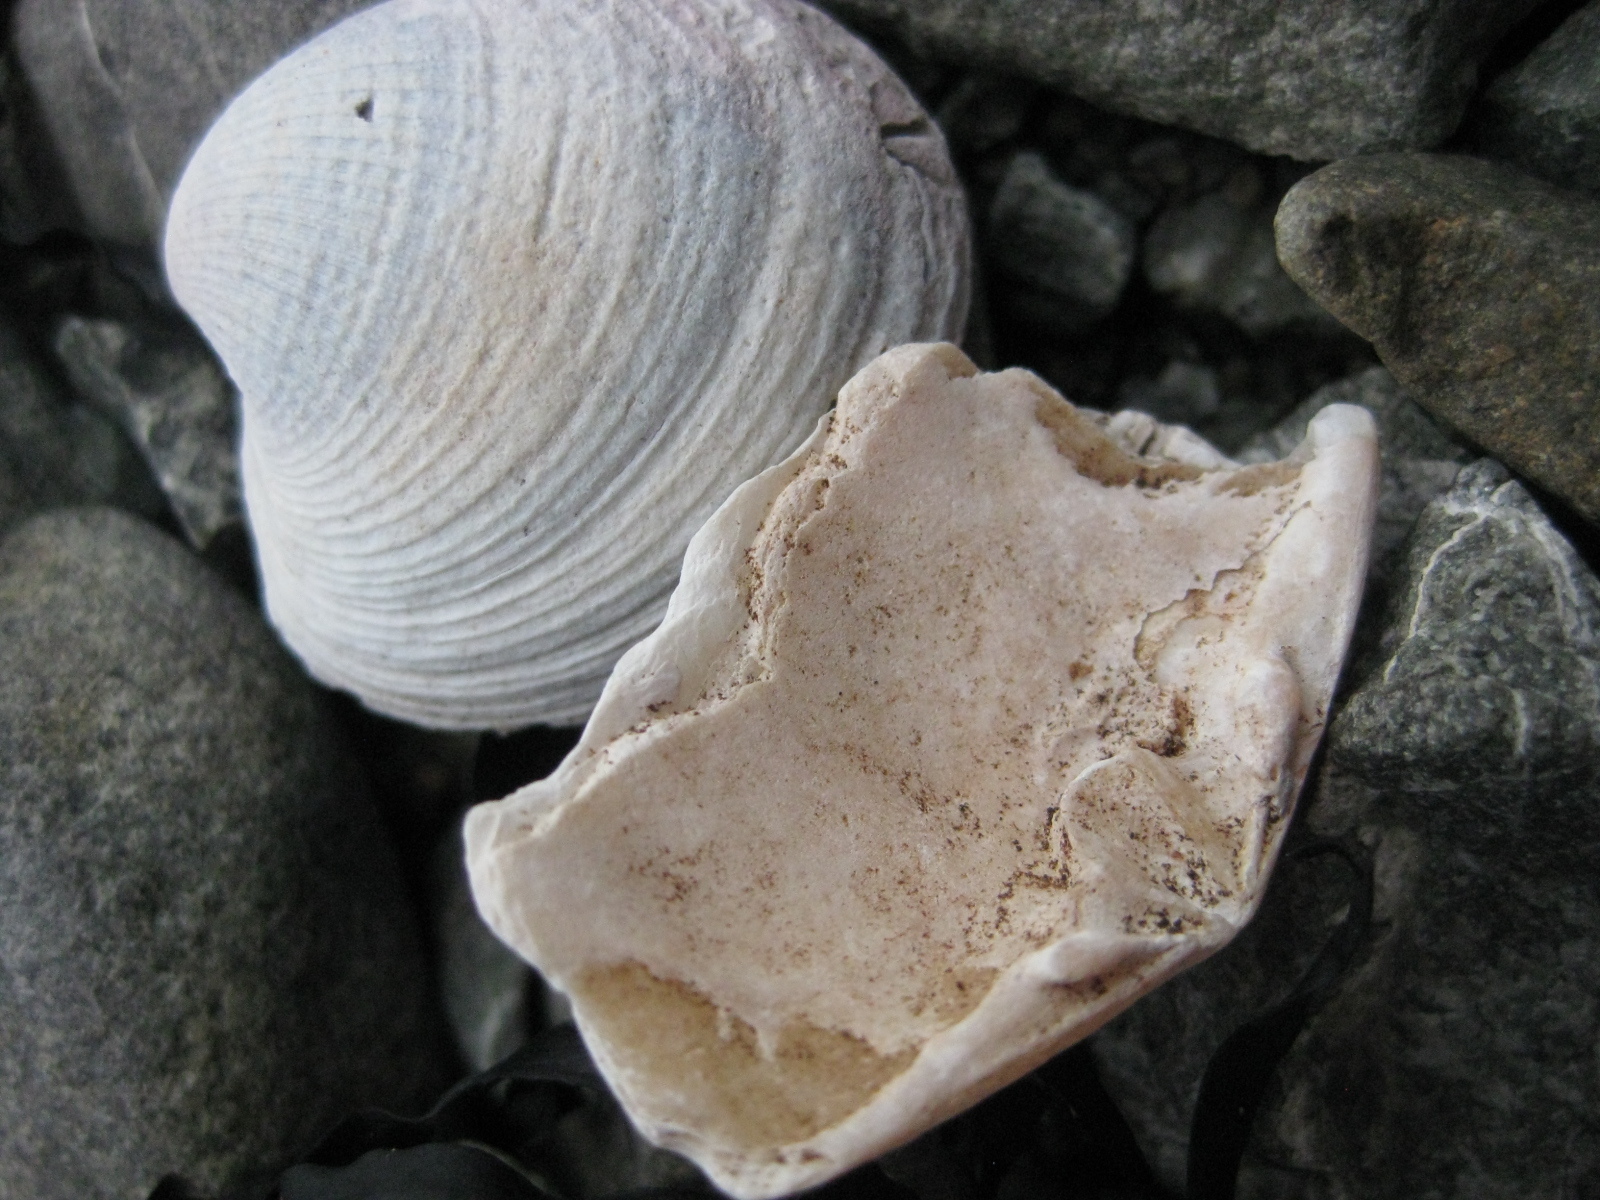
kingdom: Animalia
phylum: Mollusca
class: Bivalvia
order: Venerida
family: Mesodesmatidae
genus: Paphies
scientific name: Paphies australis
